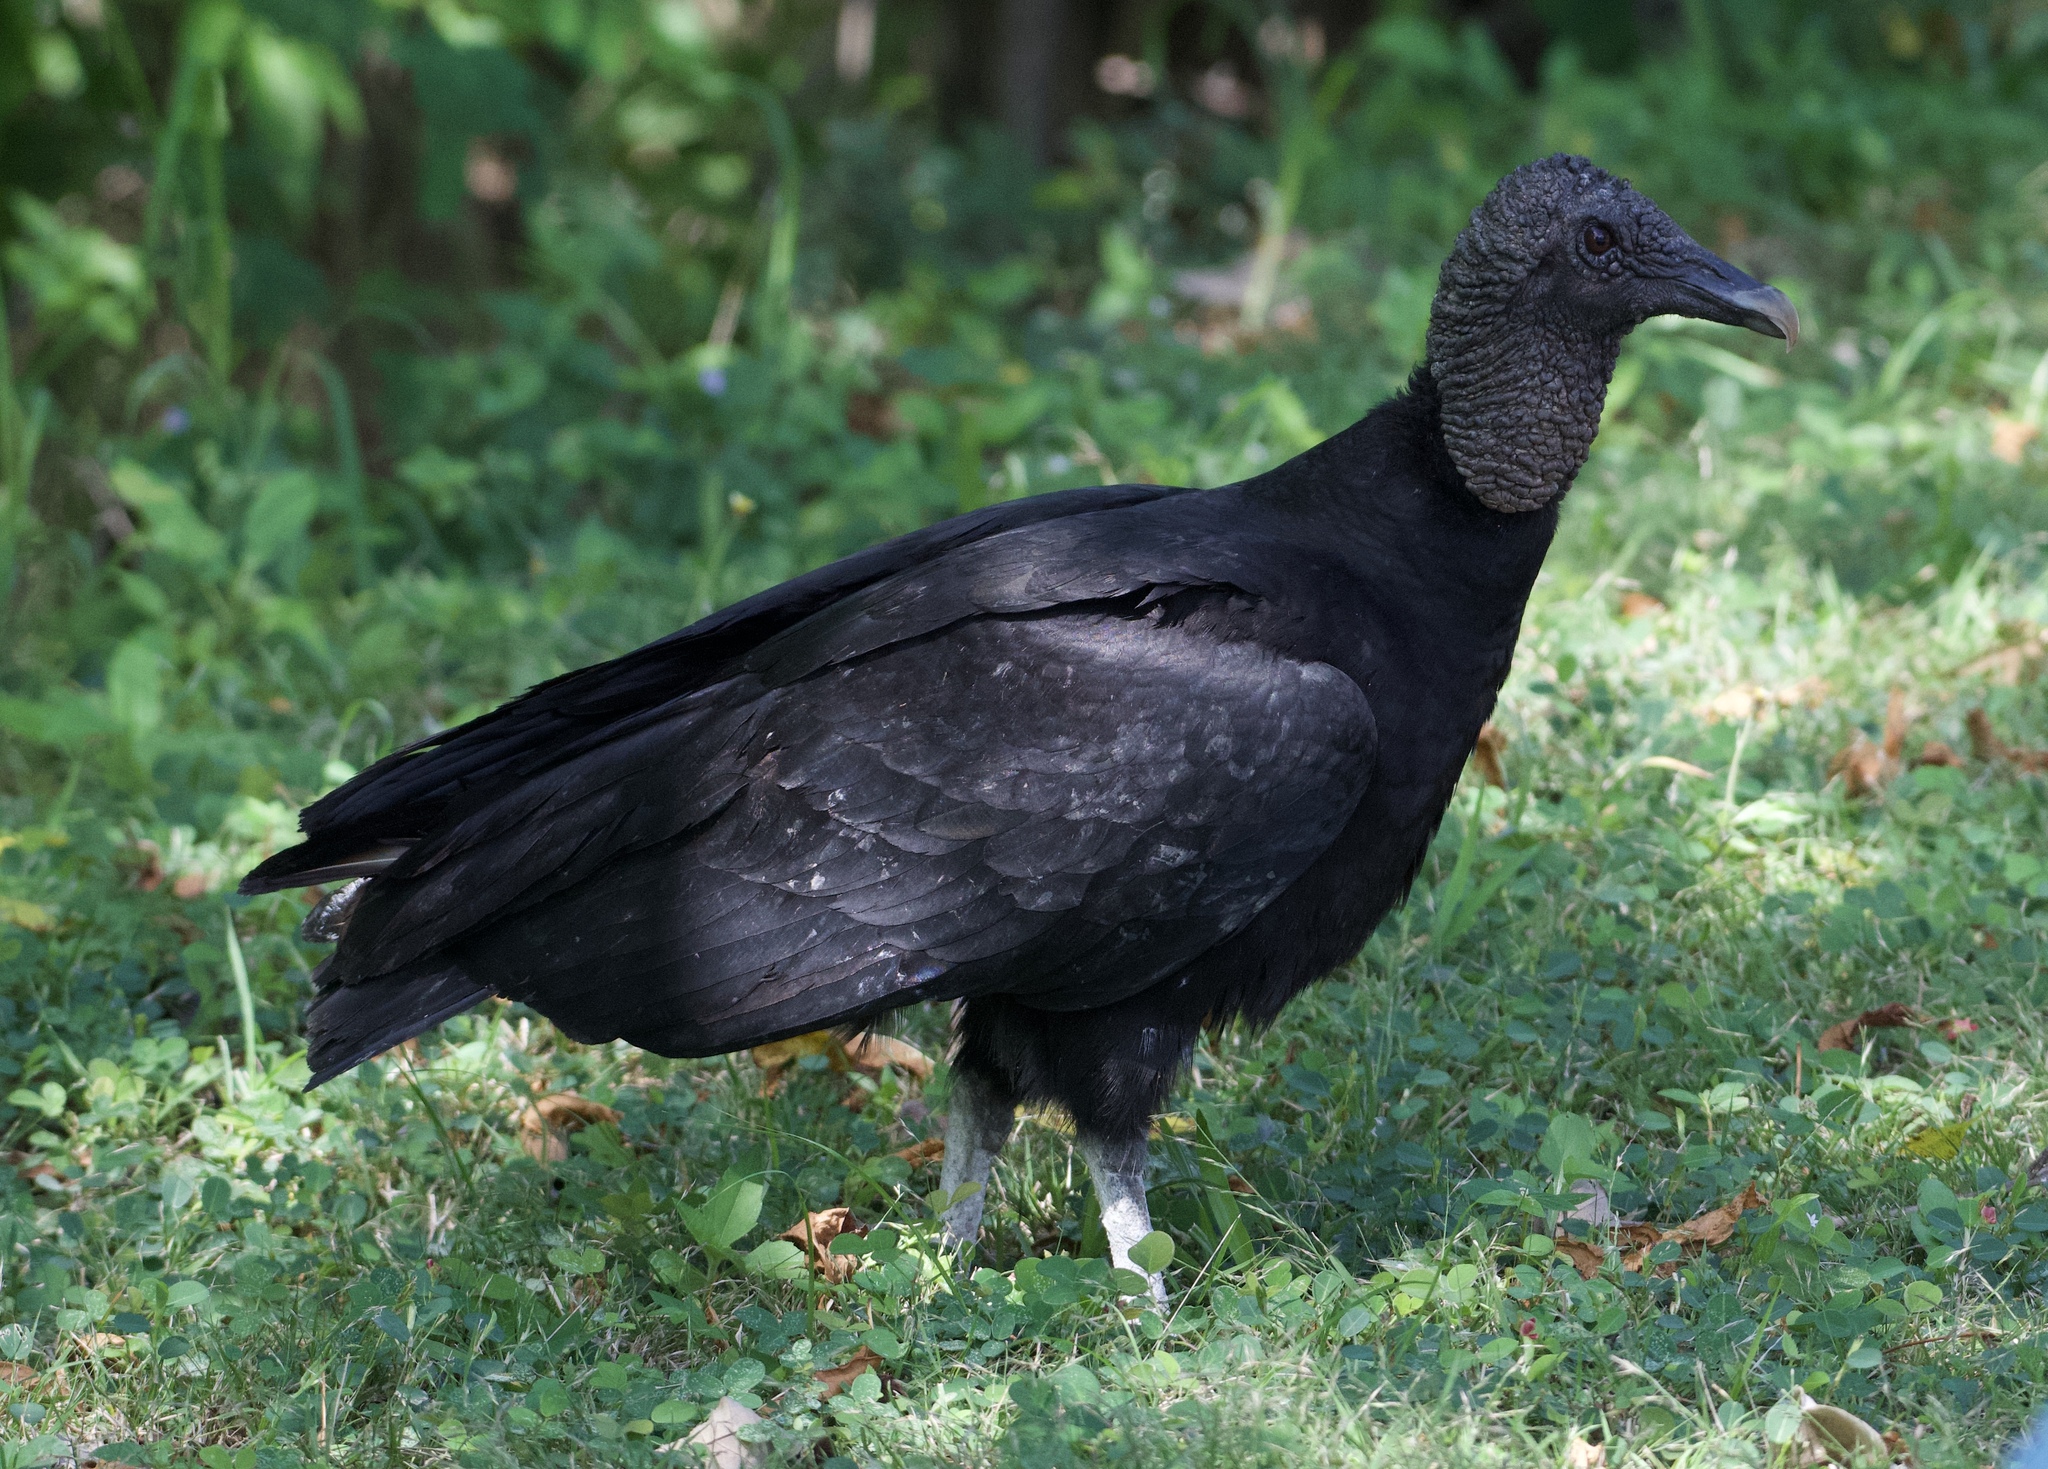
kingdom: Animalia
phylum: Chordata
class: Aves
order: Accipitriformes
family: Cathartidae
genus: Coragyps
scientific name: Coragyps atratus
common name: Black vulture
